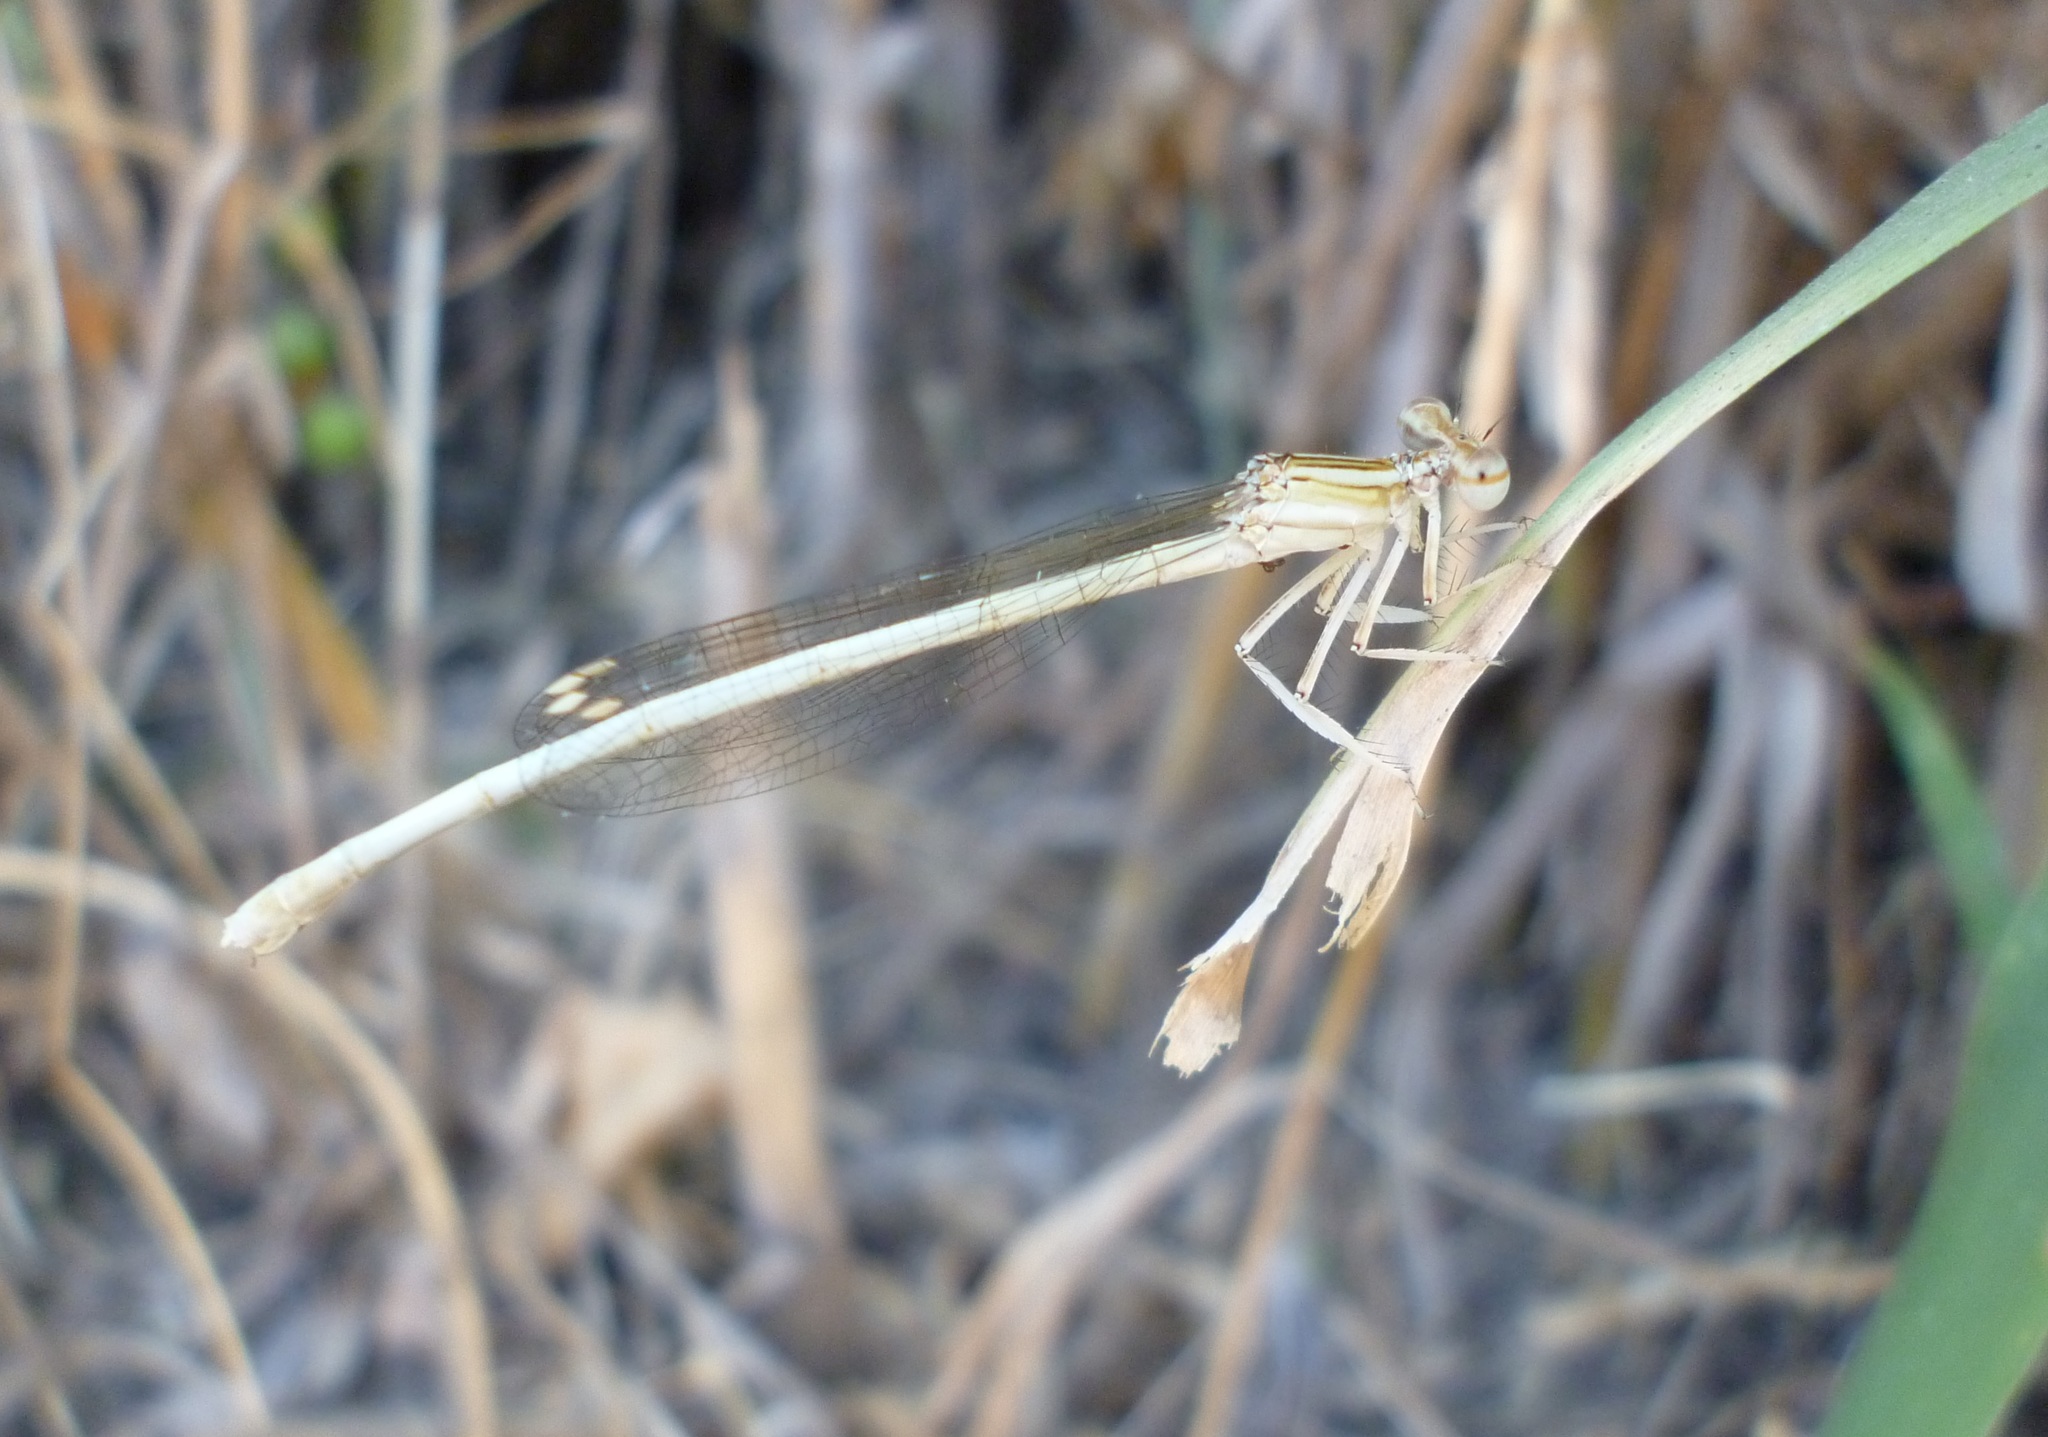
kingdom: Animalia
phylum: Arthropoda
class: Insecta
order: Odonata
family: Platycnemididae
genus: Platycnemis
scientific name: Platycnemis dealbata
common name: Ivory featherleg
